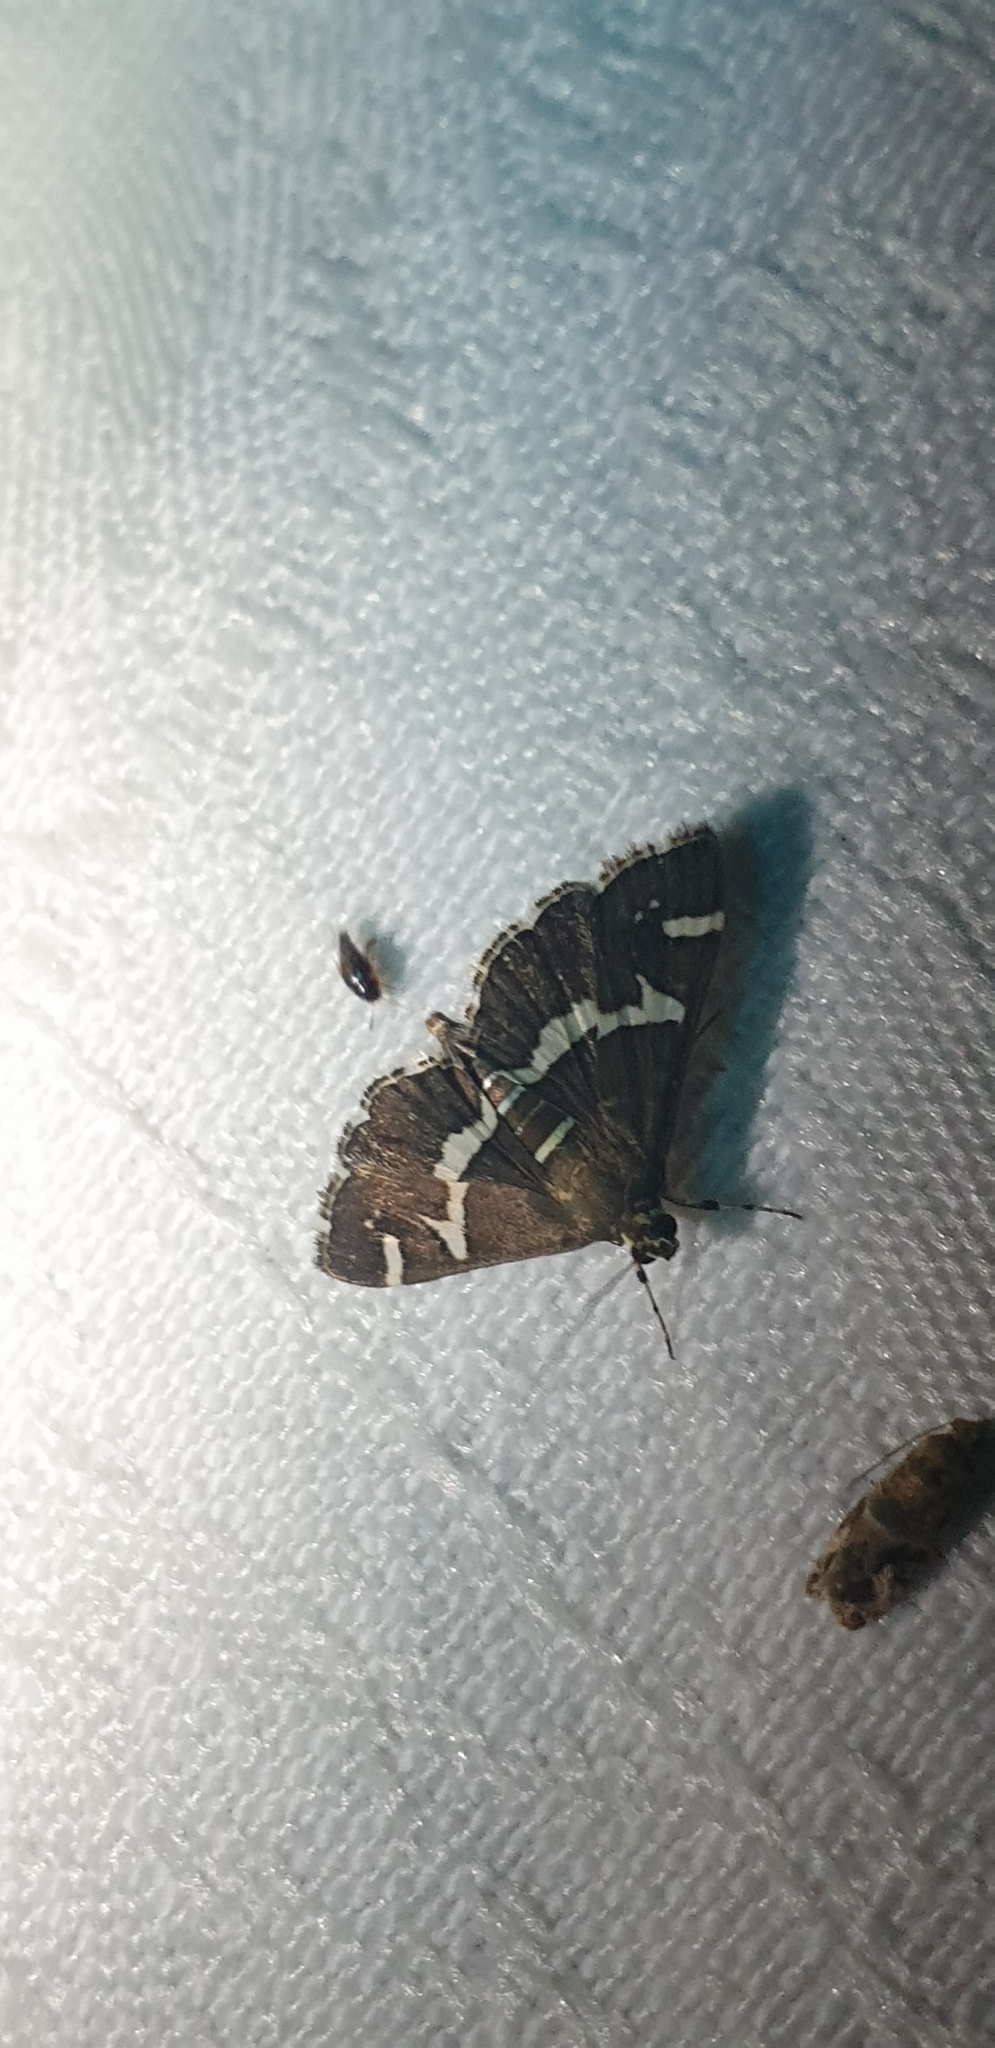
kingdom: Animalia
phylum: Arthropoda
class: Insecta
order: Lepidoptera
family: Crambidae
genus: Spoladea
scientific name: Spoladea recurvalis
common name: Beet webworm moth
